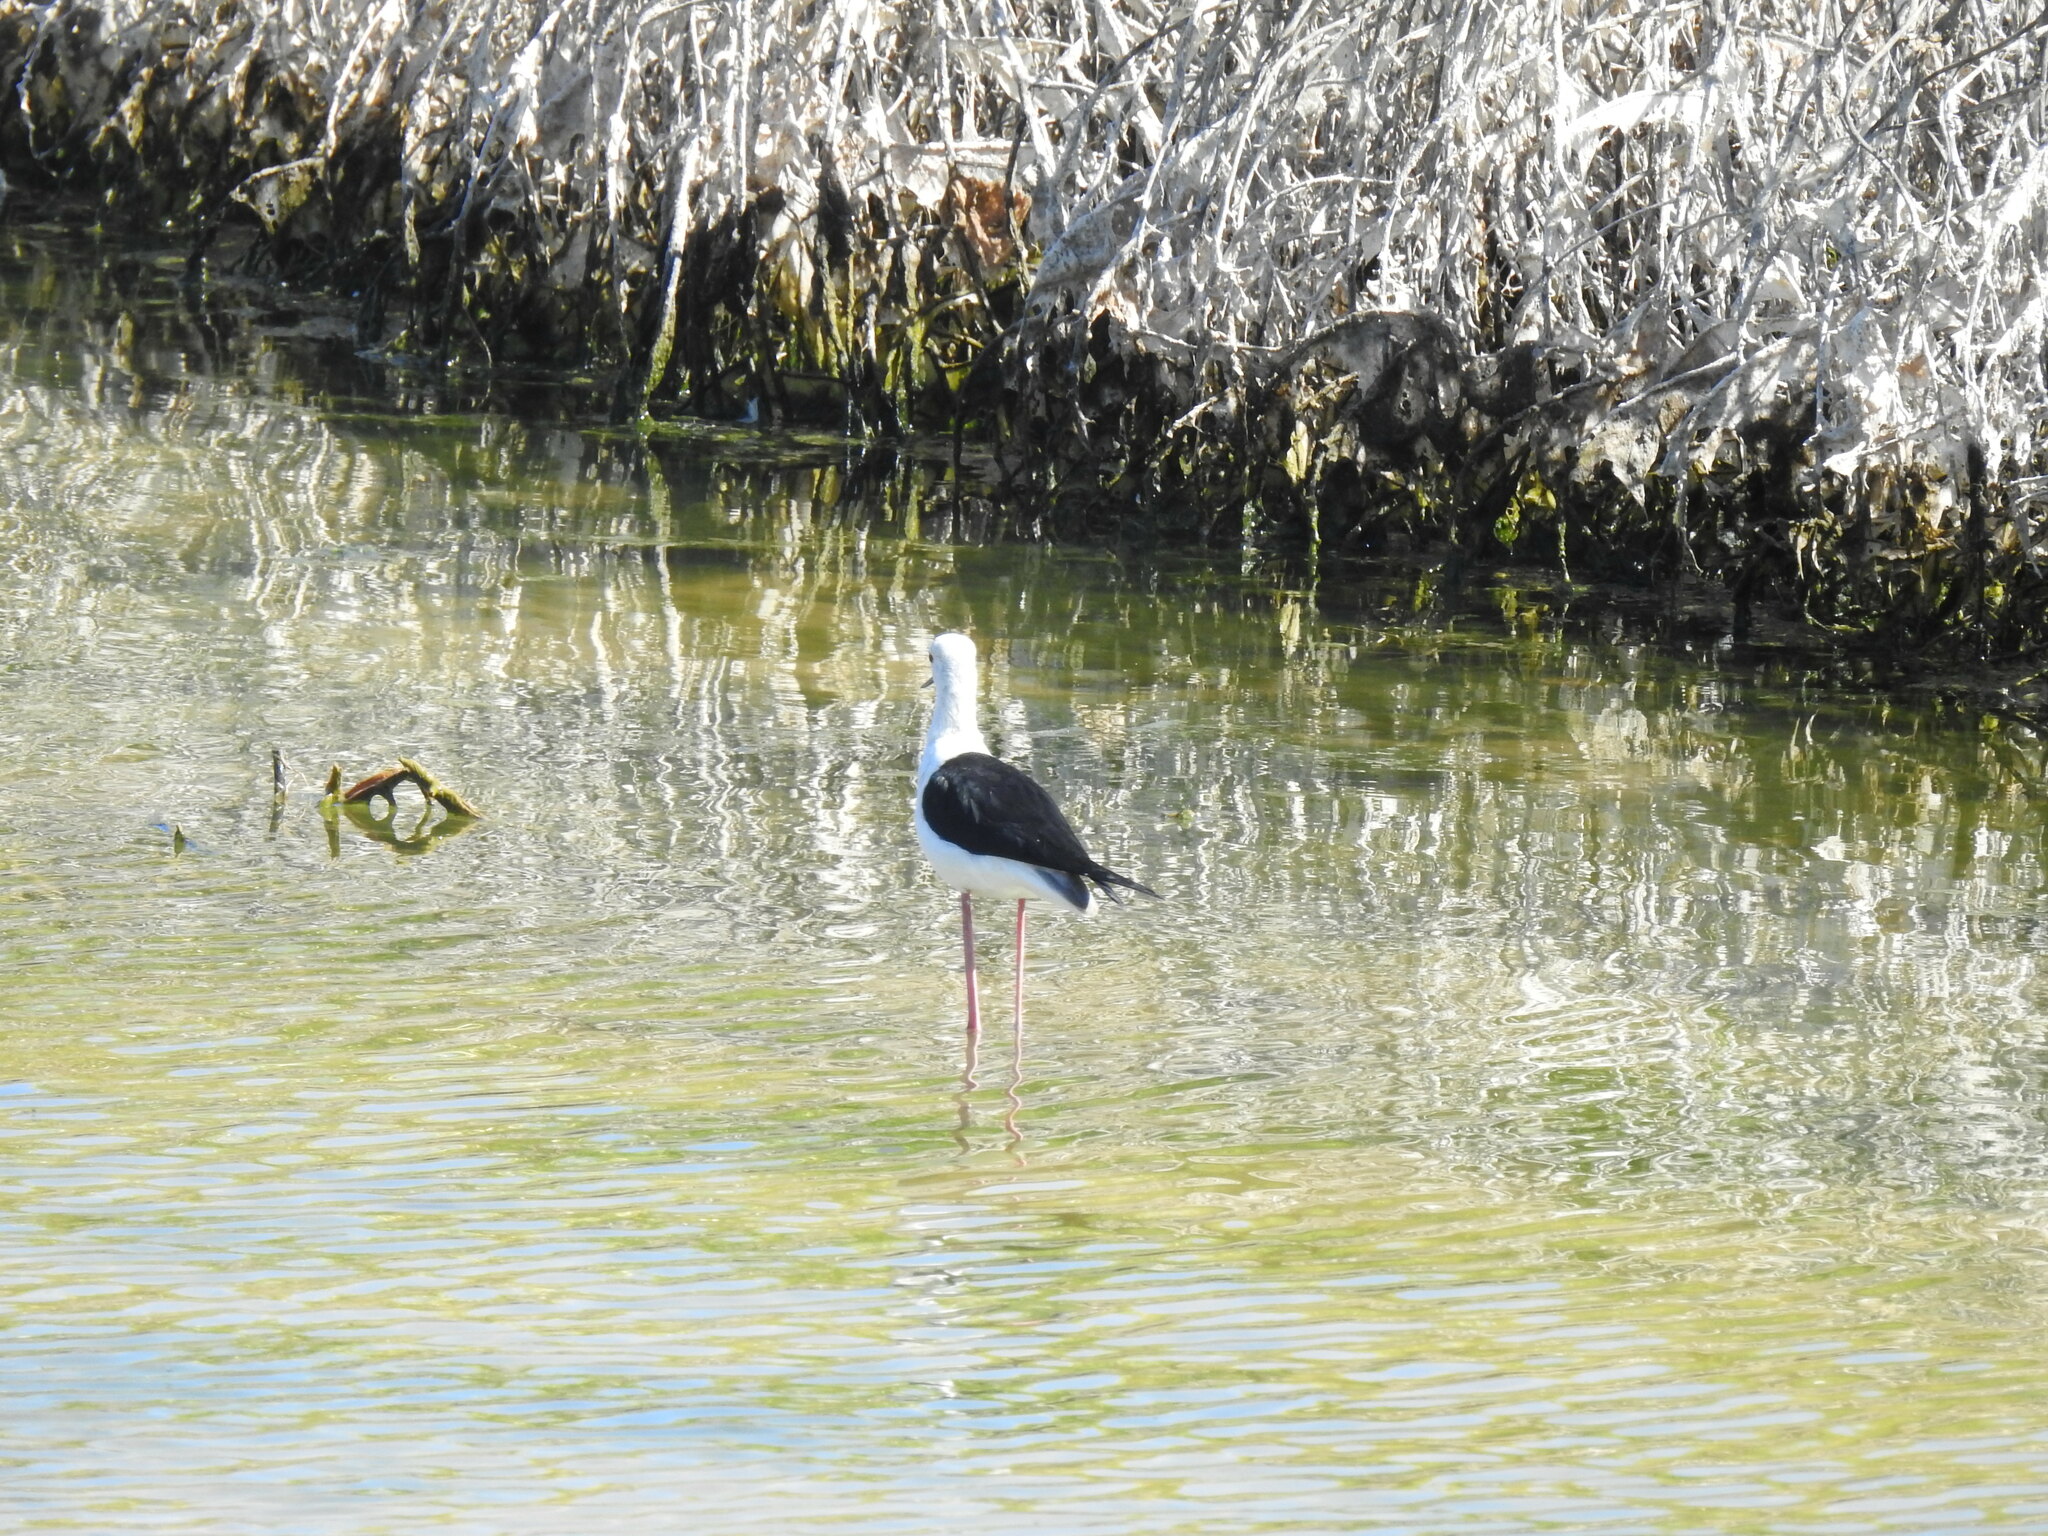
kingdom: Animalia
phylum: Chordata
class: Aves
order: Charadriiformes
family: Recurvirostridae
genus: Himantopus
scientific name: Himantopus himantopus
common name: Black-winged stilt
